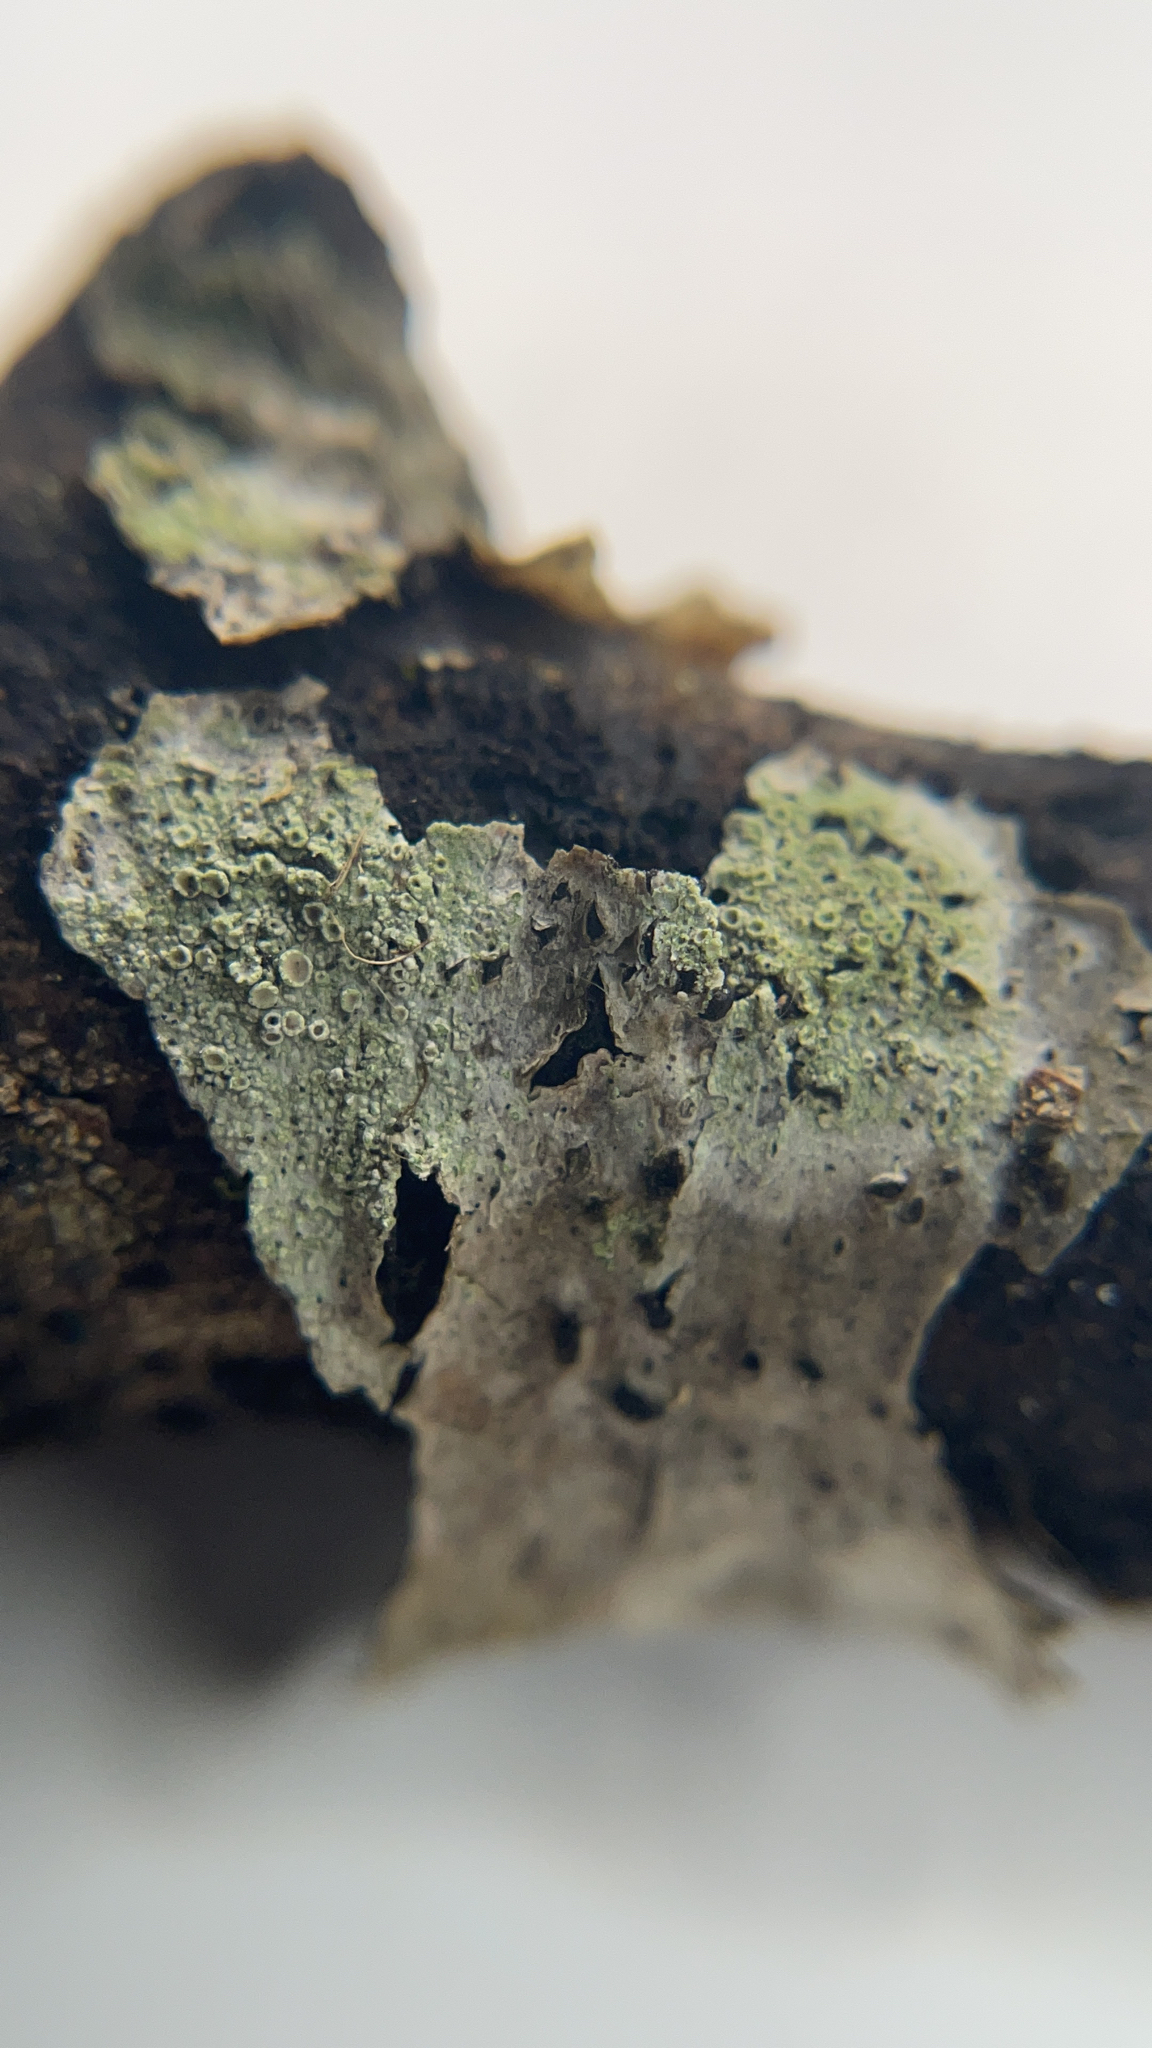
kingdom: Fungi
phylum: Ascomycota
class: Lecanoromycetes
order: Lecanorales
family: Lecanoraceae
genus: Lecanora
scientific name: Lecanora hybocarpa
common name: Bumpy rim-lichen
